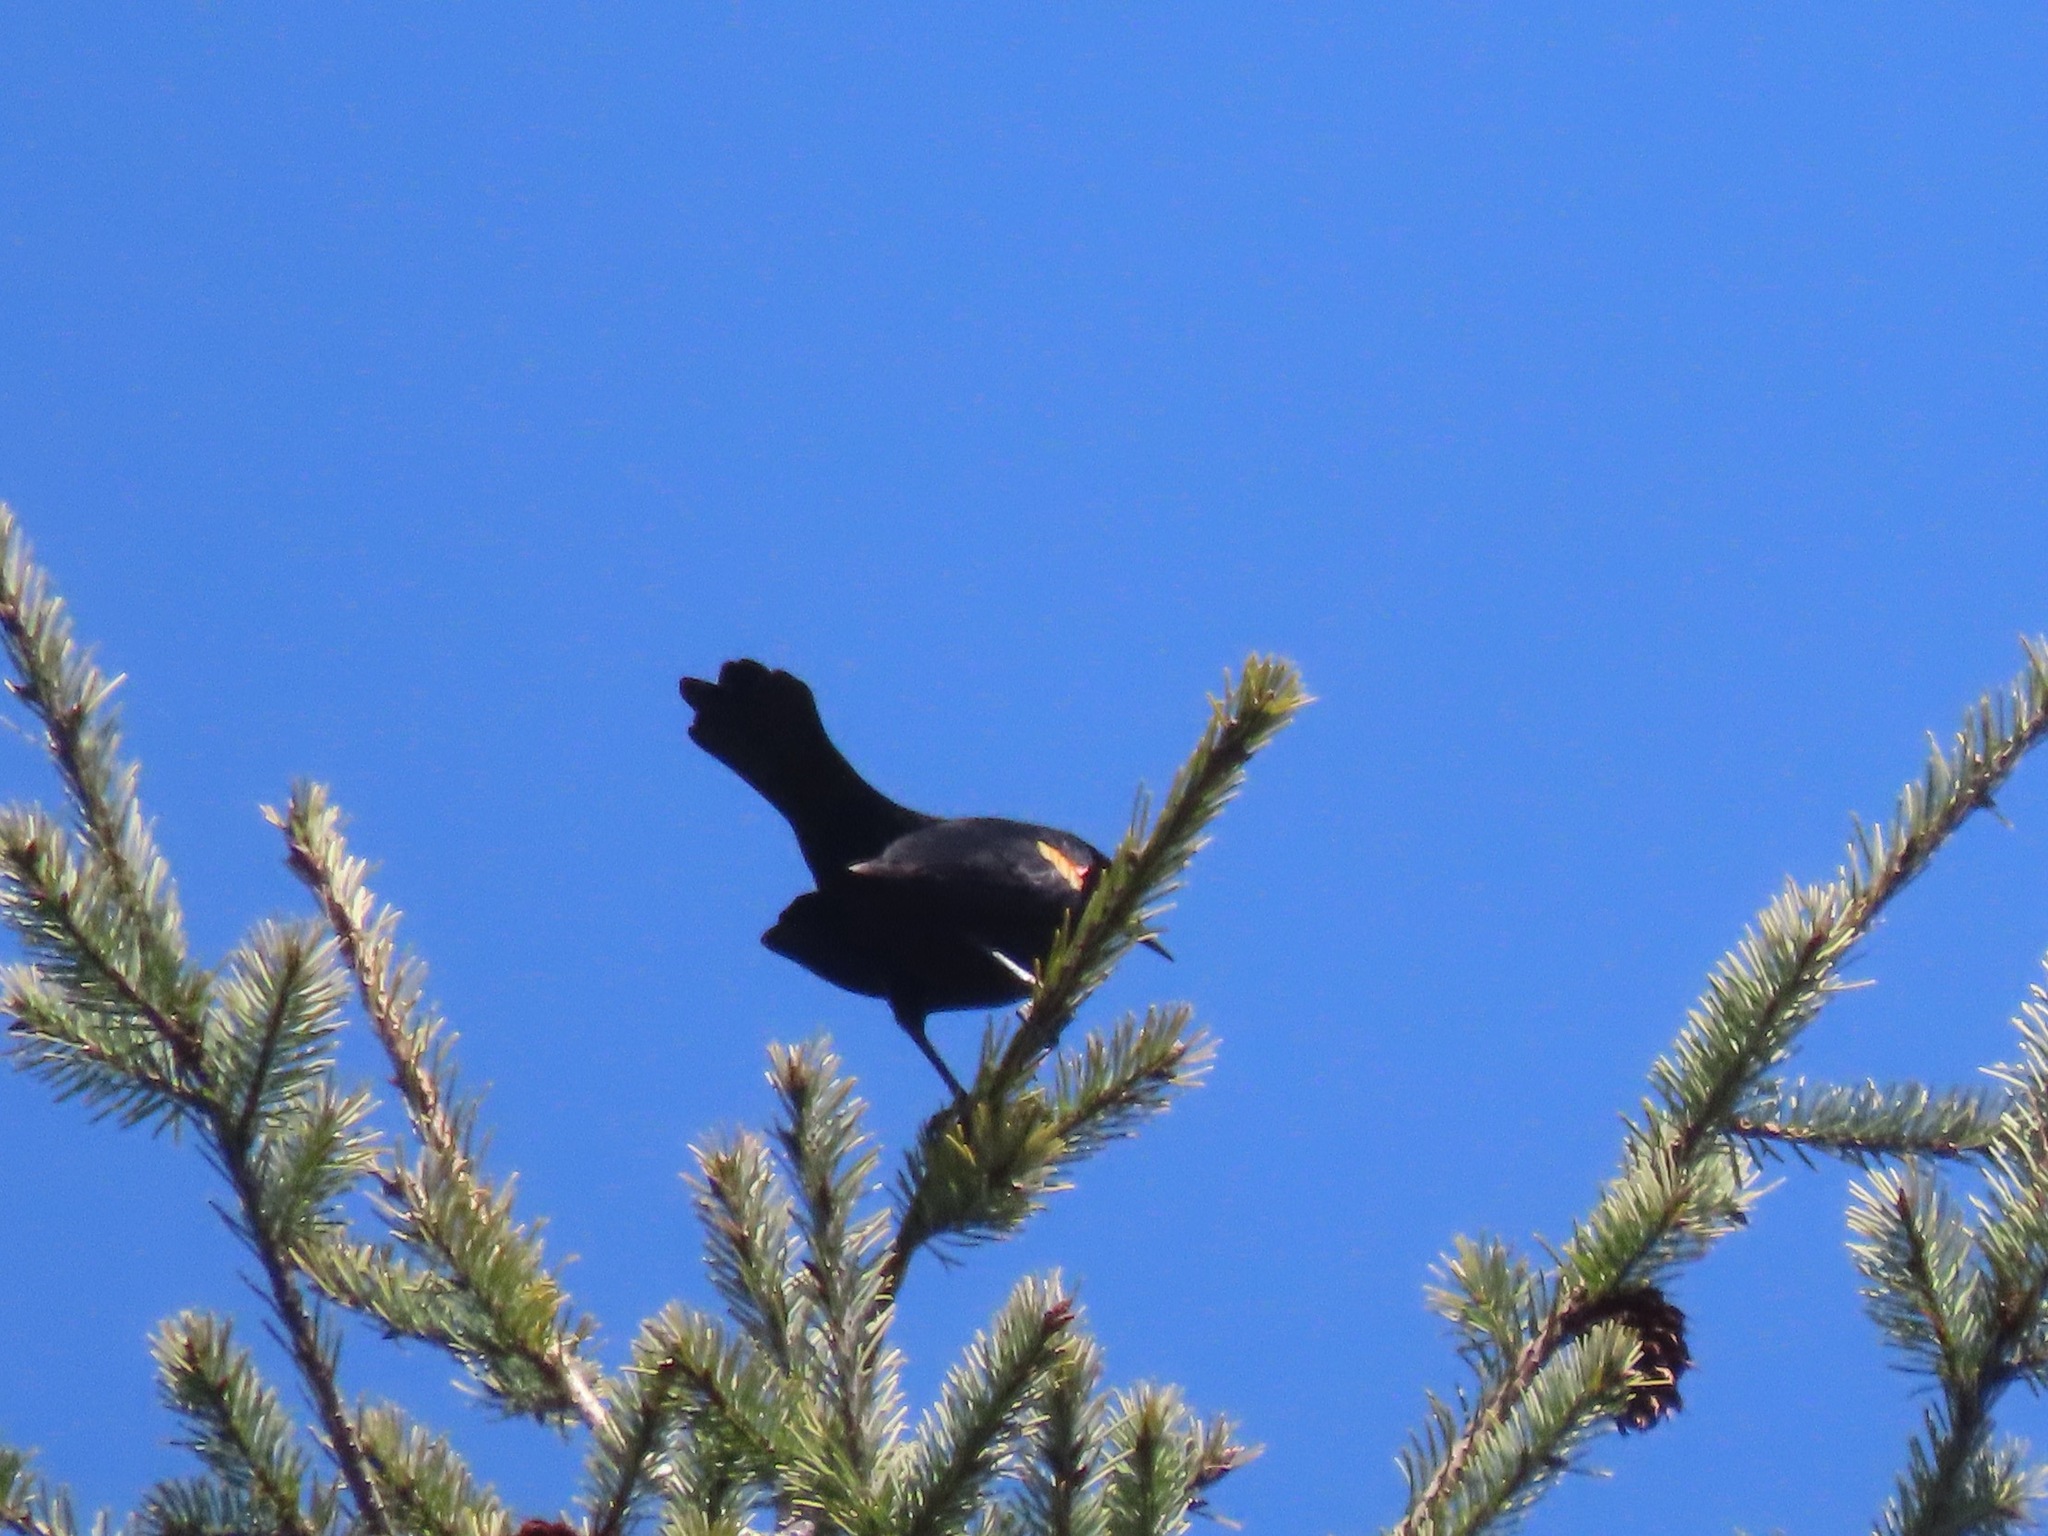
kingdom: Animalia
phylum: Chordata
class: Aves
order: Passeriformes
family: Icteridae
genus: Agelaius
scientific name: Agelaius phoeniceus
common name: Red-winged blackbird
